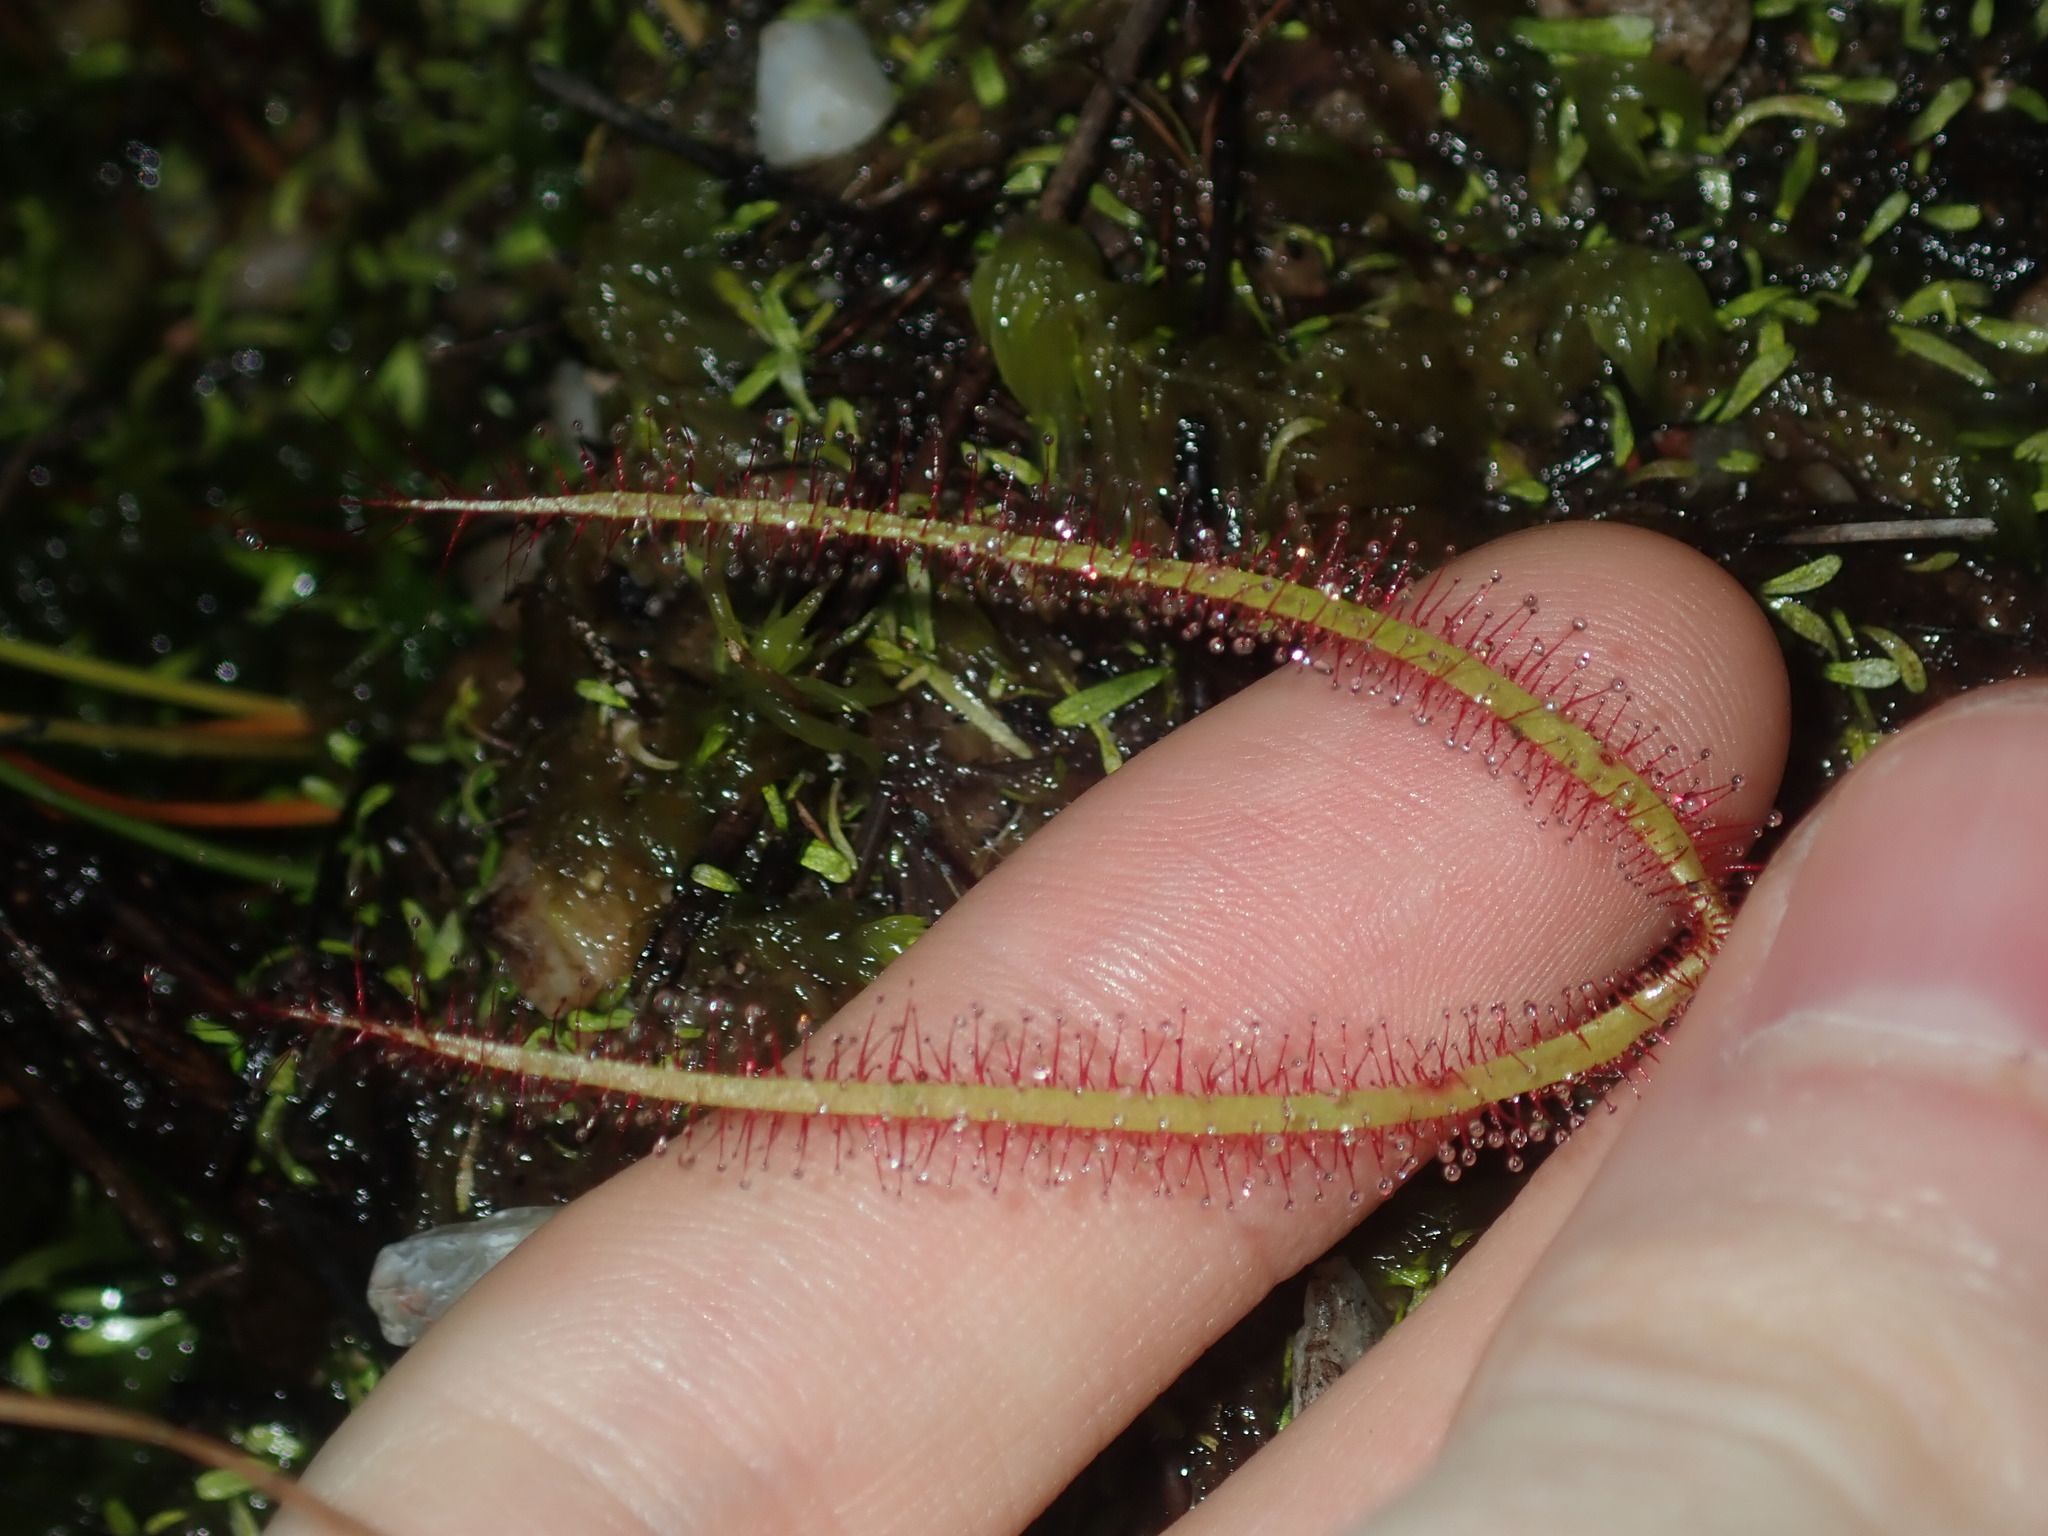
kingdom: Plantae
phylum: Tracheophyta
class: Magnoliopsida
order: Caryophyllales
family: Droseraceae
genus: Drosera
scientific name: Drosera binata
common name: Forked sundew
